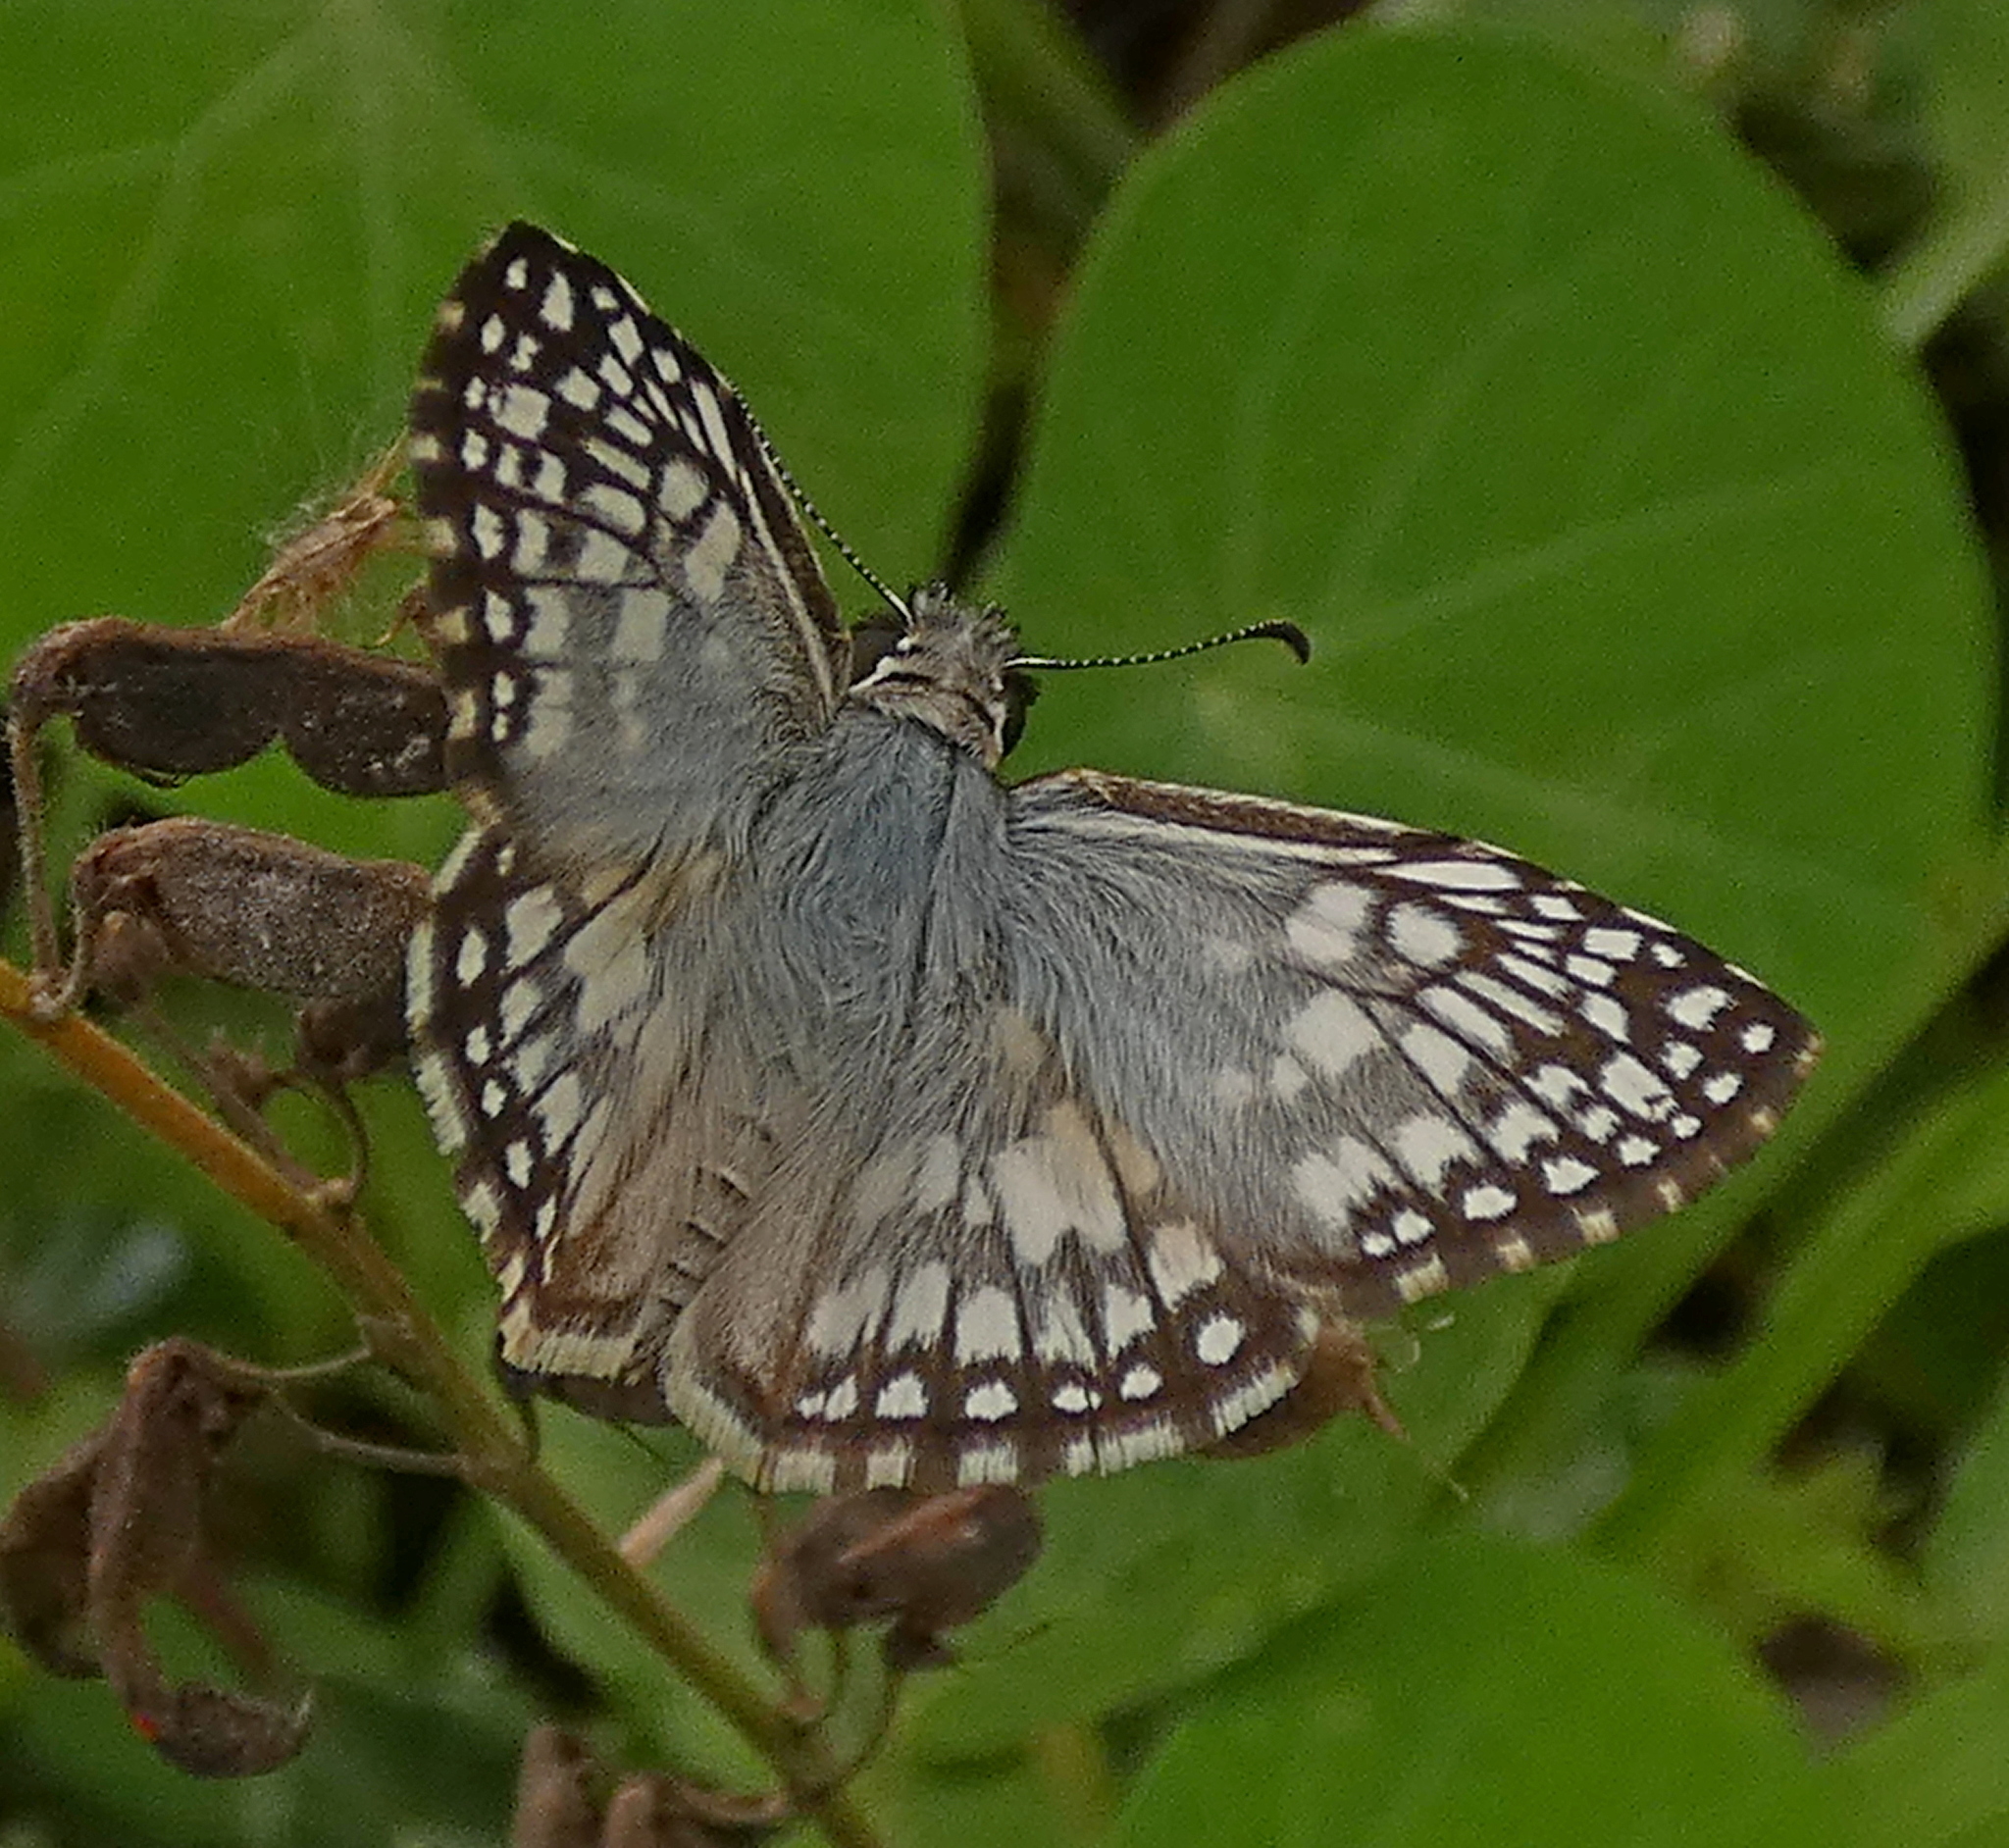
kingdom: Animalia
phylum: Arthropoda
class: Insecta
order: Lepidoptera
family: Hesperiidae
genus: Pyrgus
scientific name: Pyrgus oileus
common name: Tropical checkered-skipper
